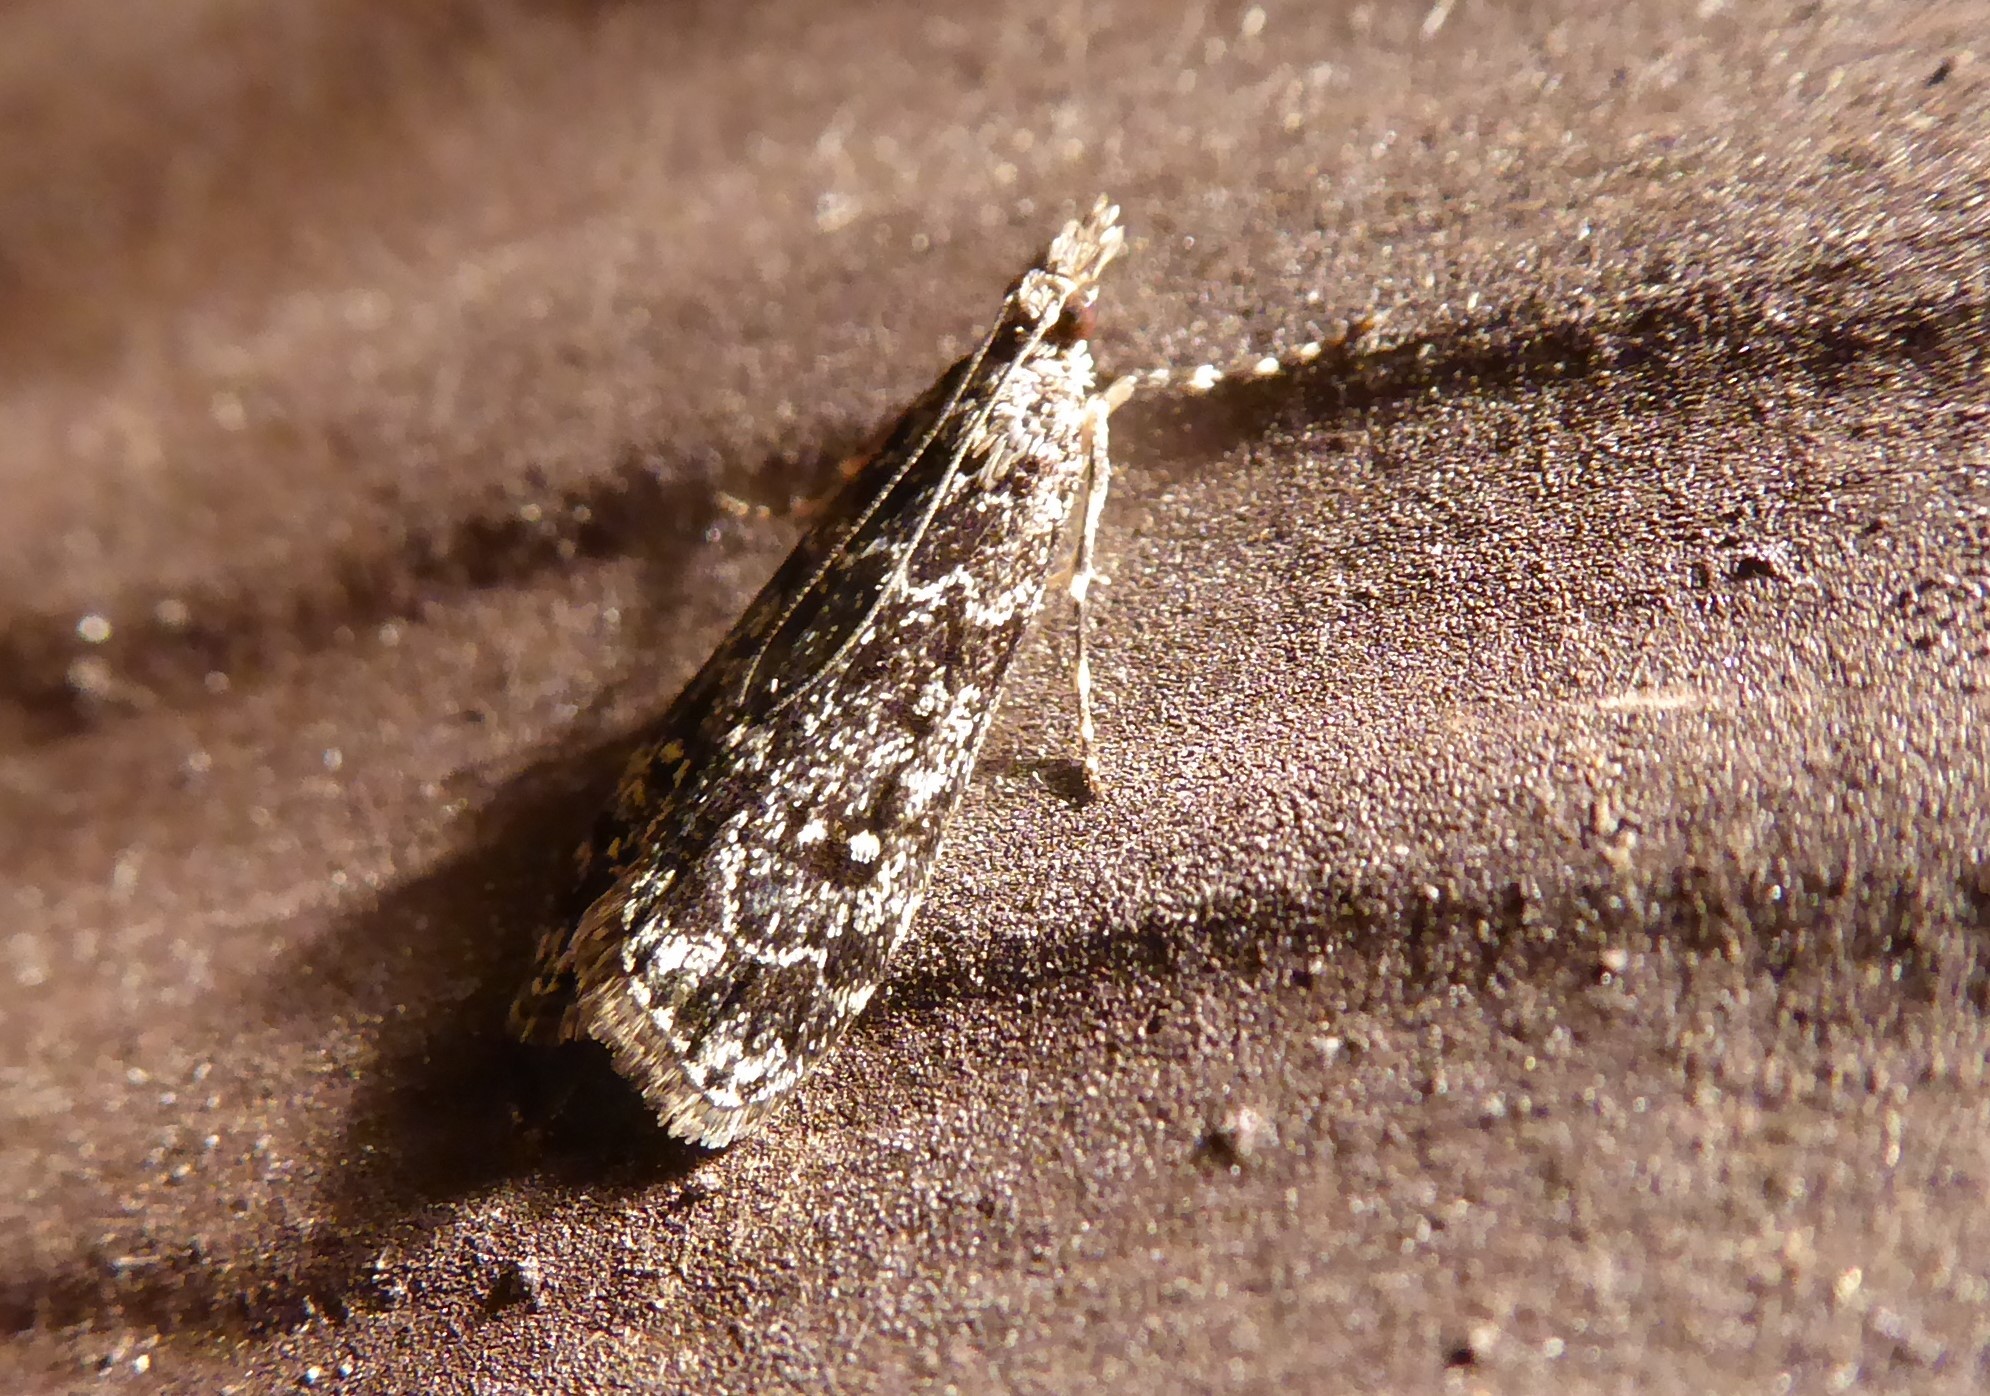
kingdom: Animalia
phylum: Arthropoda
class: Insecta
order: Lepidoptera
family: Crambidae
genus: Eudonia
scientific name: Eudonia philerga
